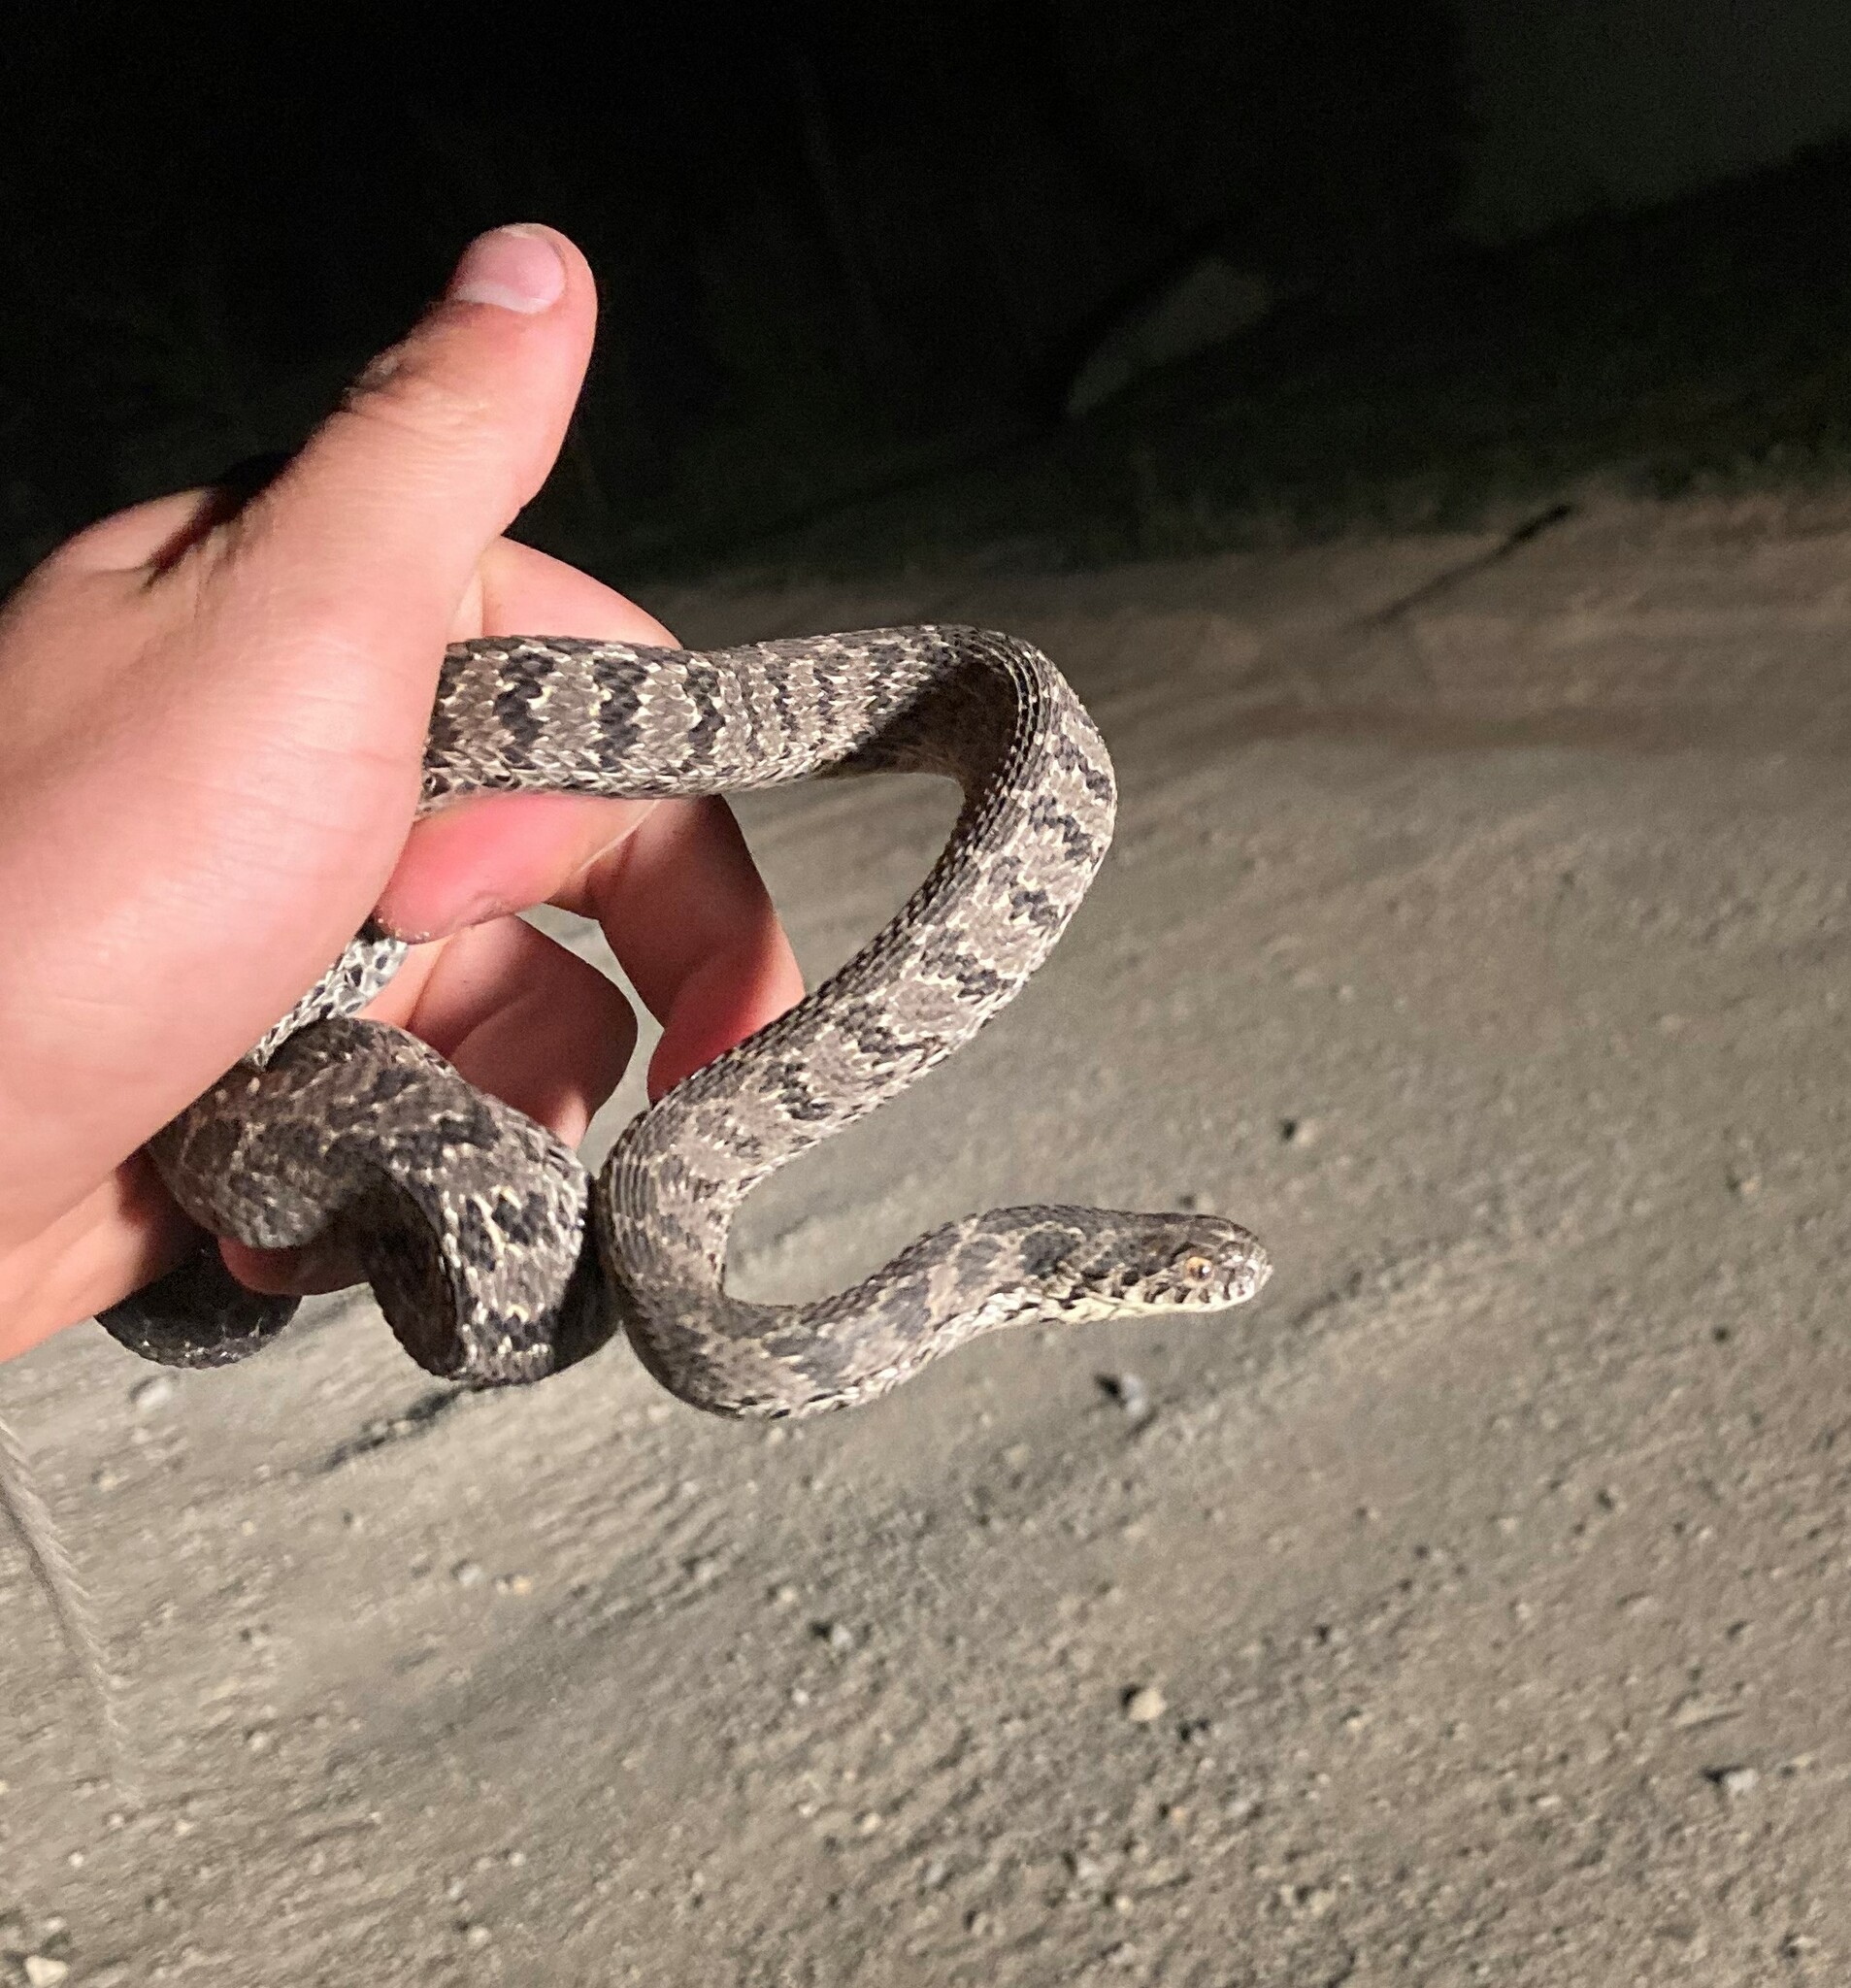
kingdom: Animalia
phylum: Chordata
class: Squamata
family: Colubridae
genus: Dasypeltis
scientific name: Dasypeltis scabra
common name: Common egg eater
